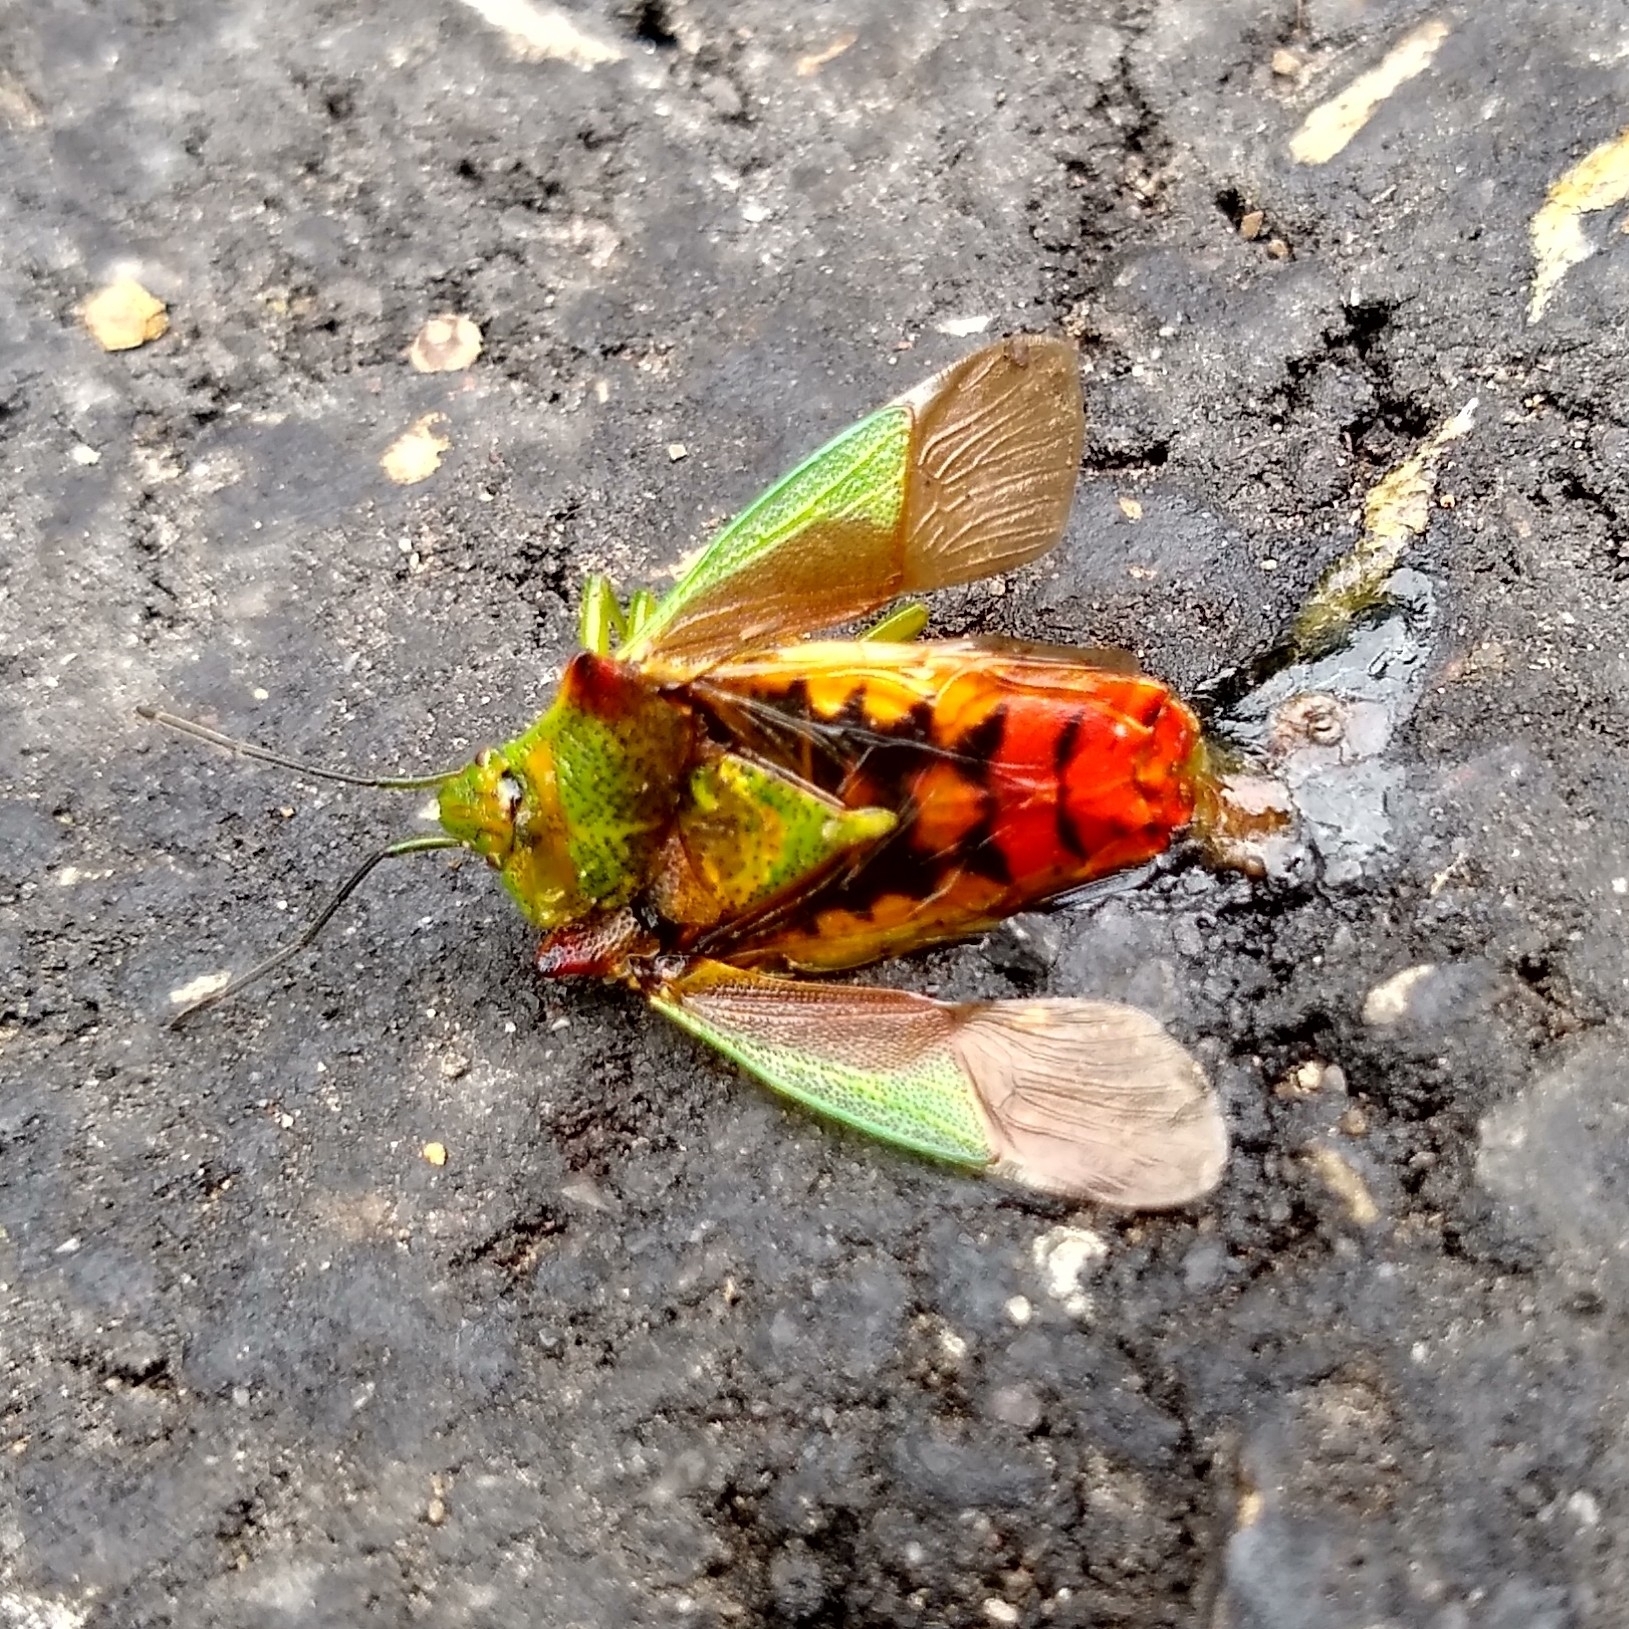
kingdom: Animalia
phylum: Arthropoda
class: Insecta
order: Hemiptera
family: Acanthosomatidae
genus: Acanthosoma
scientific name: Acanthosoma haemorrhoidale
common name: Hawthorn shieldbug
